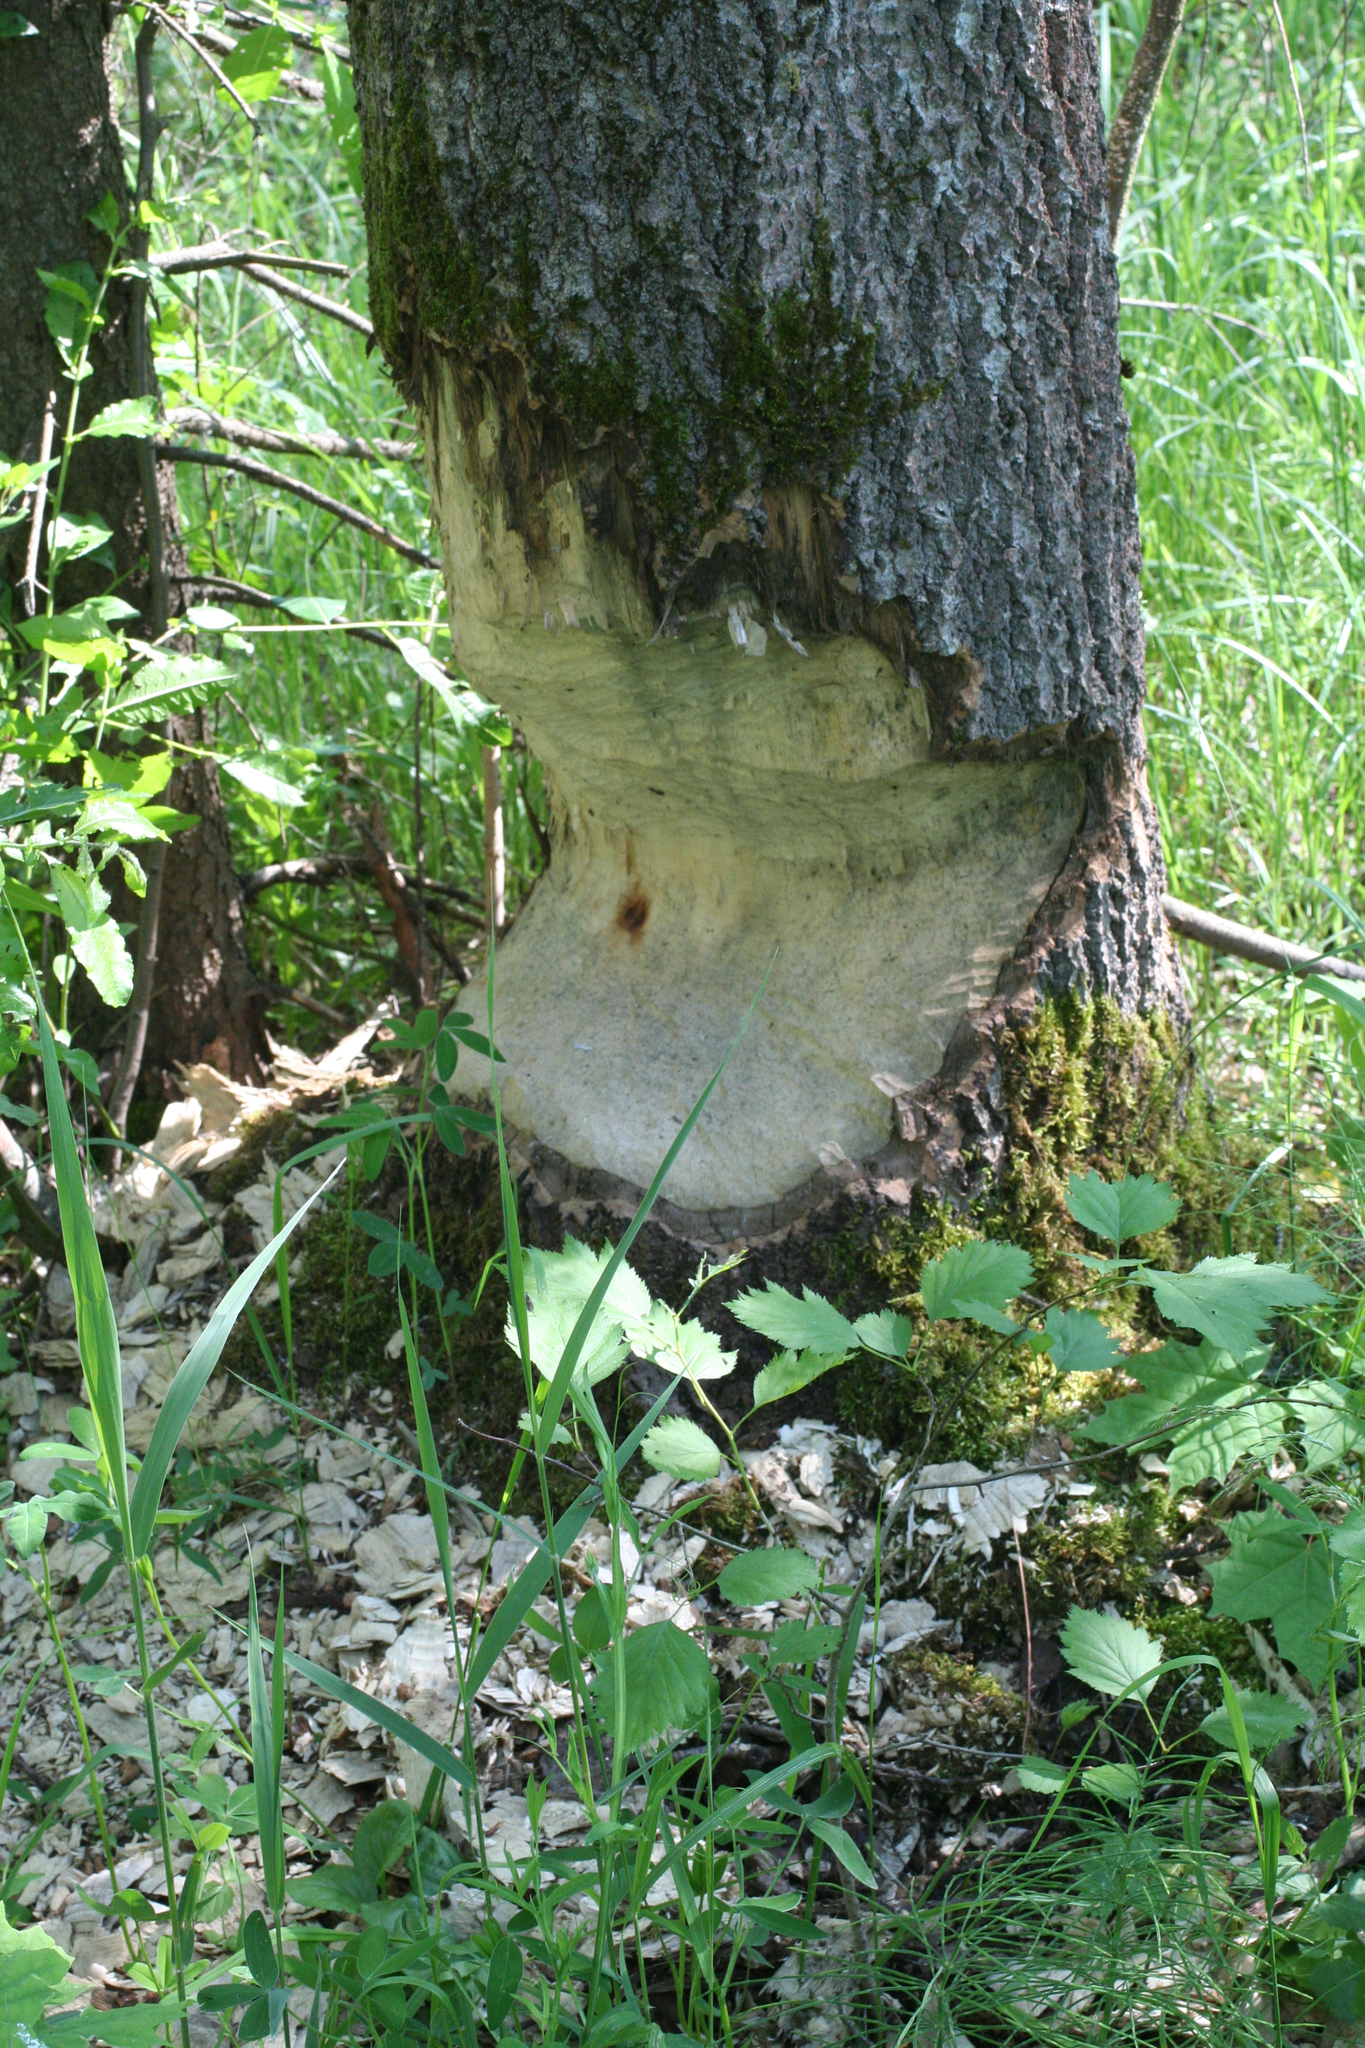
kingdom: Animalia
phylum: Chordata
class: Mammalia
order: Rodentia
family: Castoridae
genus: Castor
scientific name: Castor fiber
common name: Eurasian beaver
